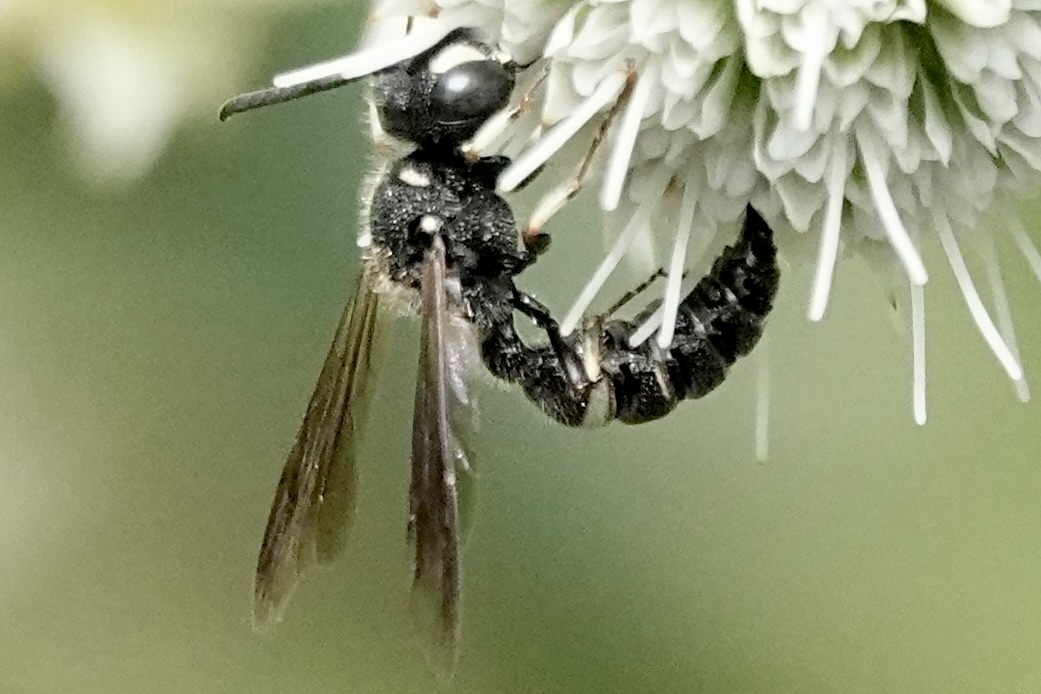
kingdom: Animalia
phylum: Arthropoda
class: Insecta
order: Hymenoptera
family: Crabronidae
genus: Cerceris
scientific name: Cerceris fumipennis
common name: Smokey-winged beetle bandit wasp
